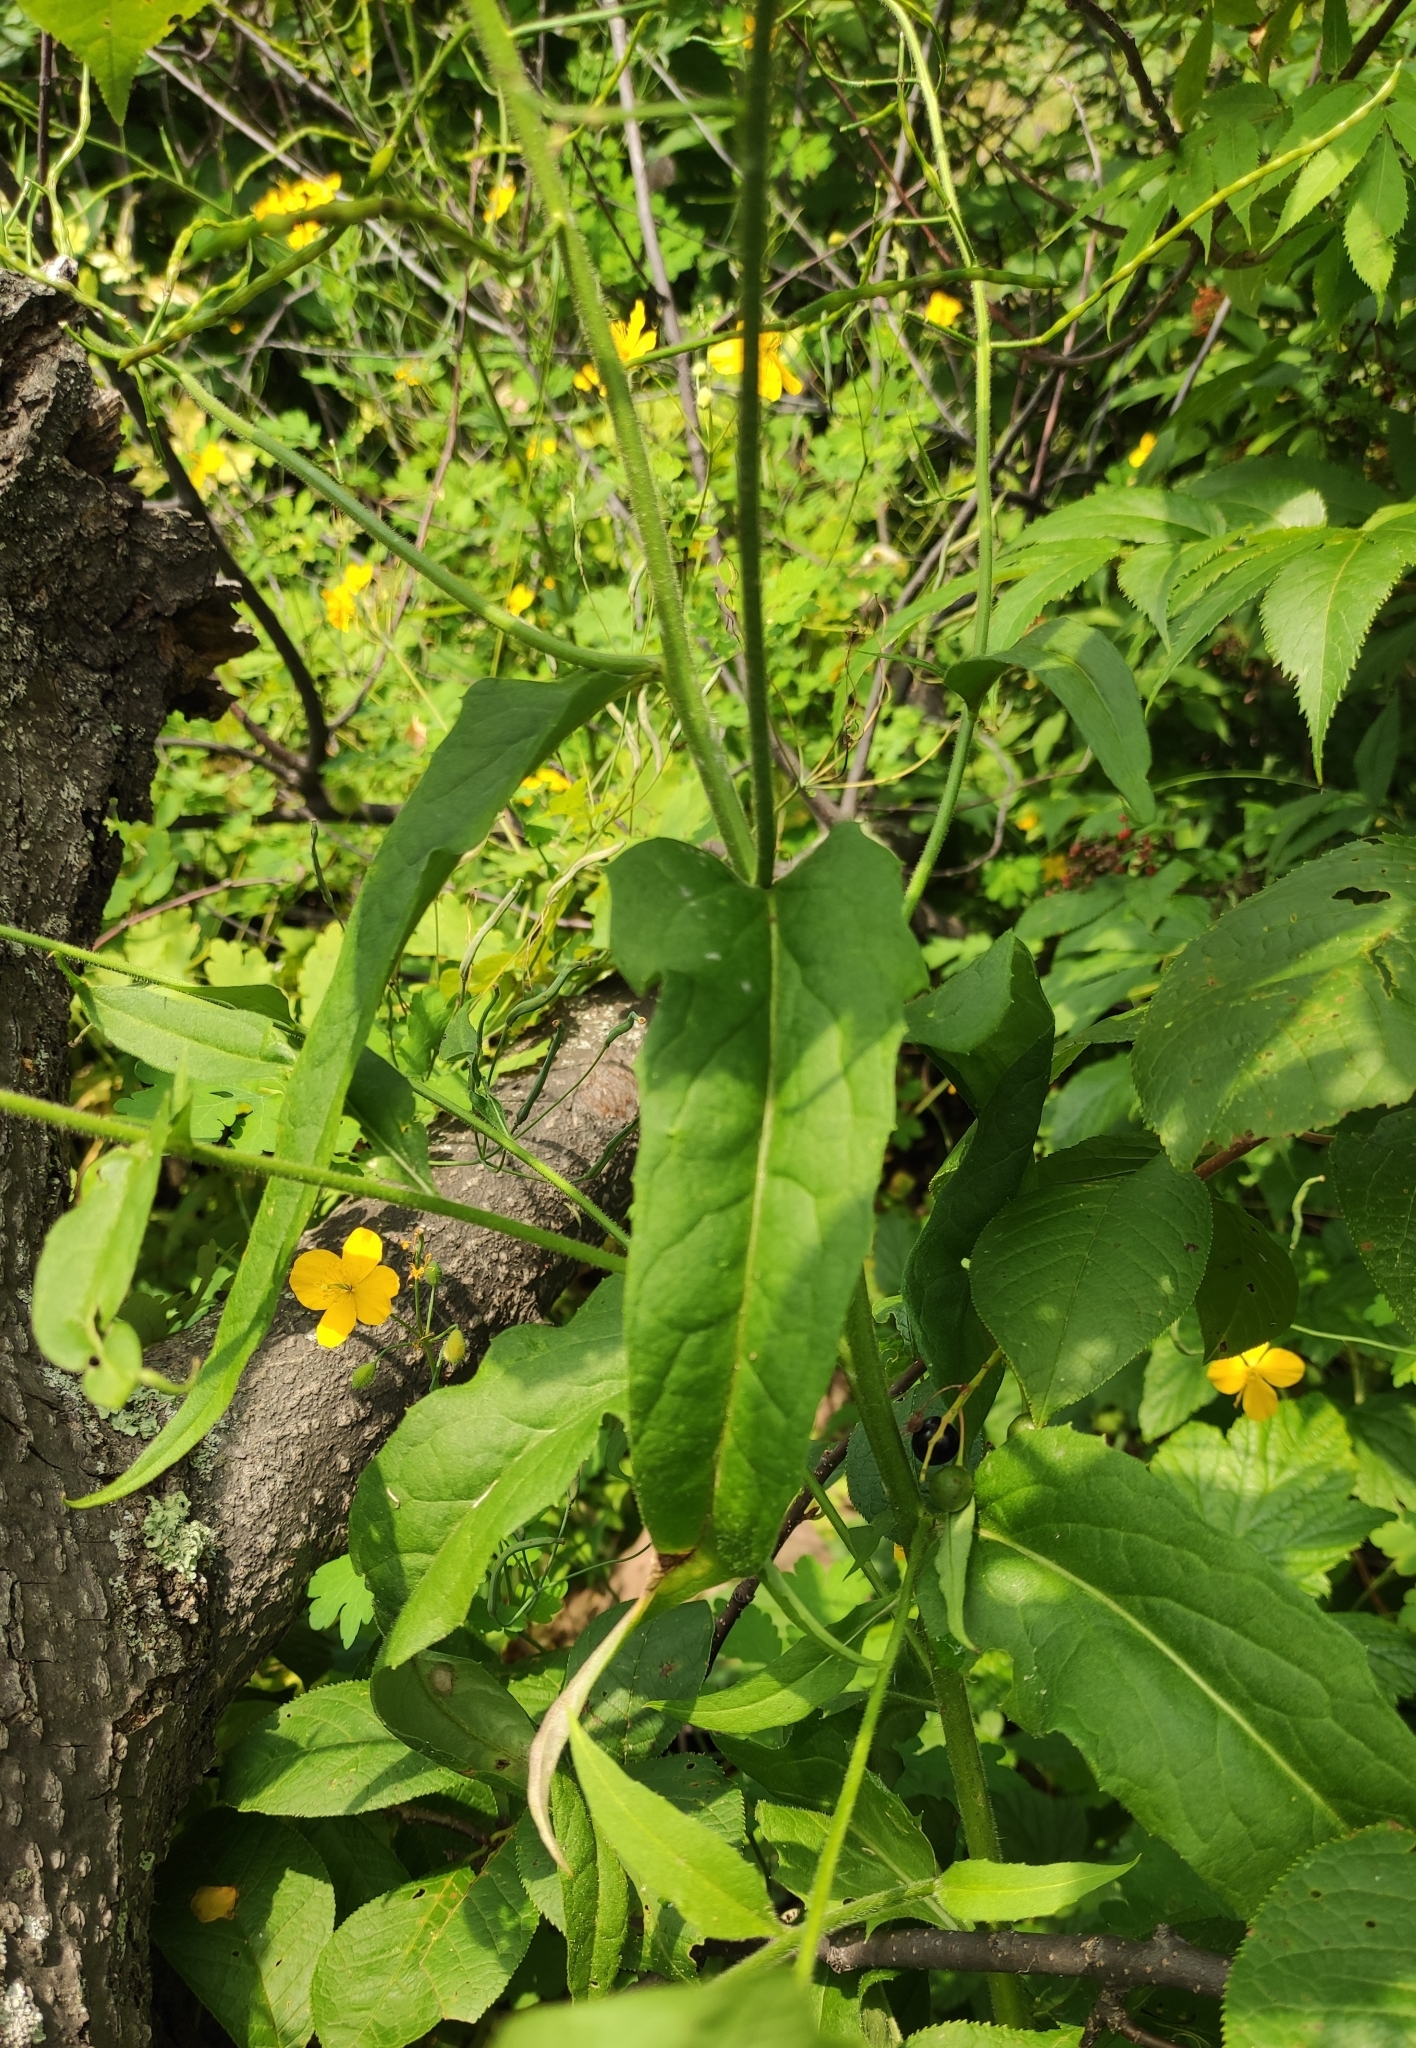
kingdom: Plantae
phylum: Tracheophyta
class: Magnoliopsida
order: Brassicales
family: Brassicaceae
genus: Hesperis
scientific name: Hesperis sibirica
